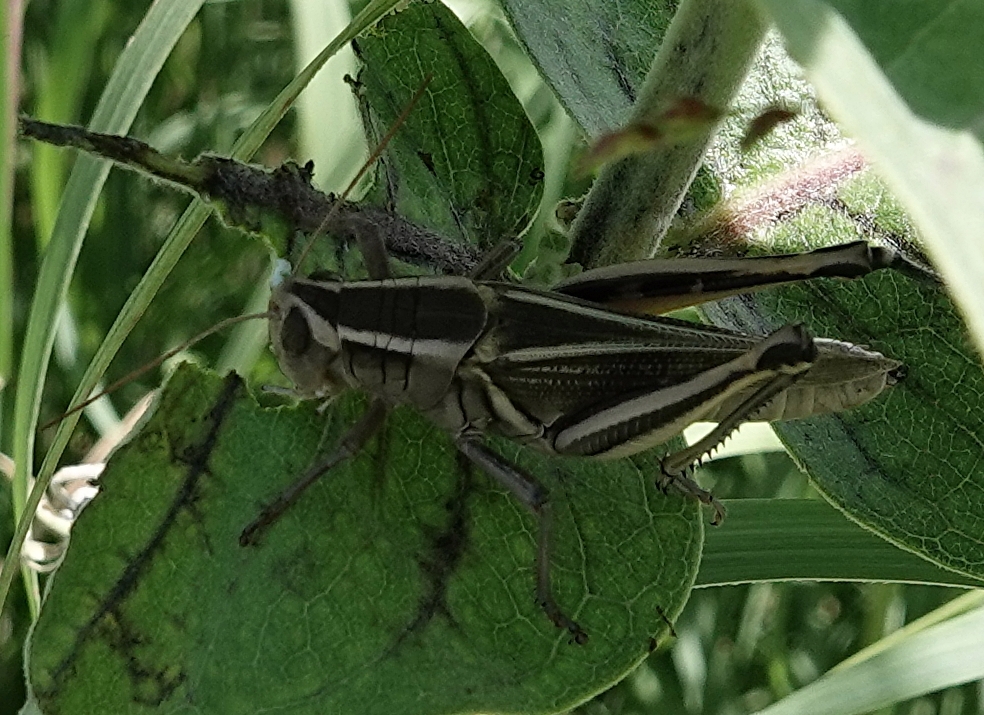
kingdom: Animalia
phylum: Arthropoda
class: Insecta
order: Orthoptera
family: Acrididae
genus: Melanoplus
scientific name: Melanoplus bivittatus
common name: Two-striped grasshopper
